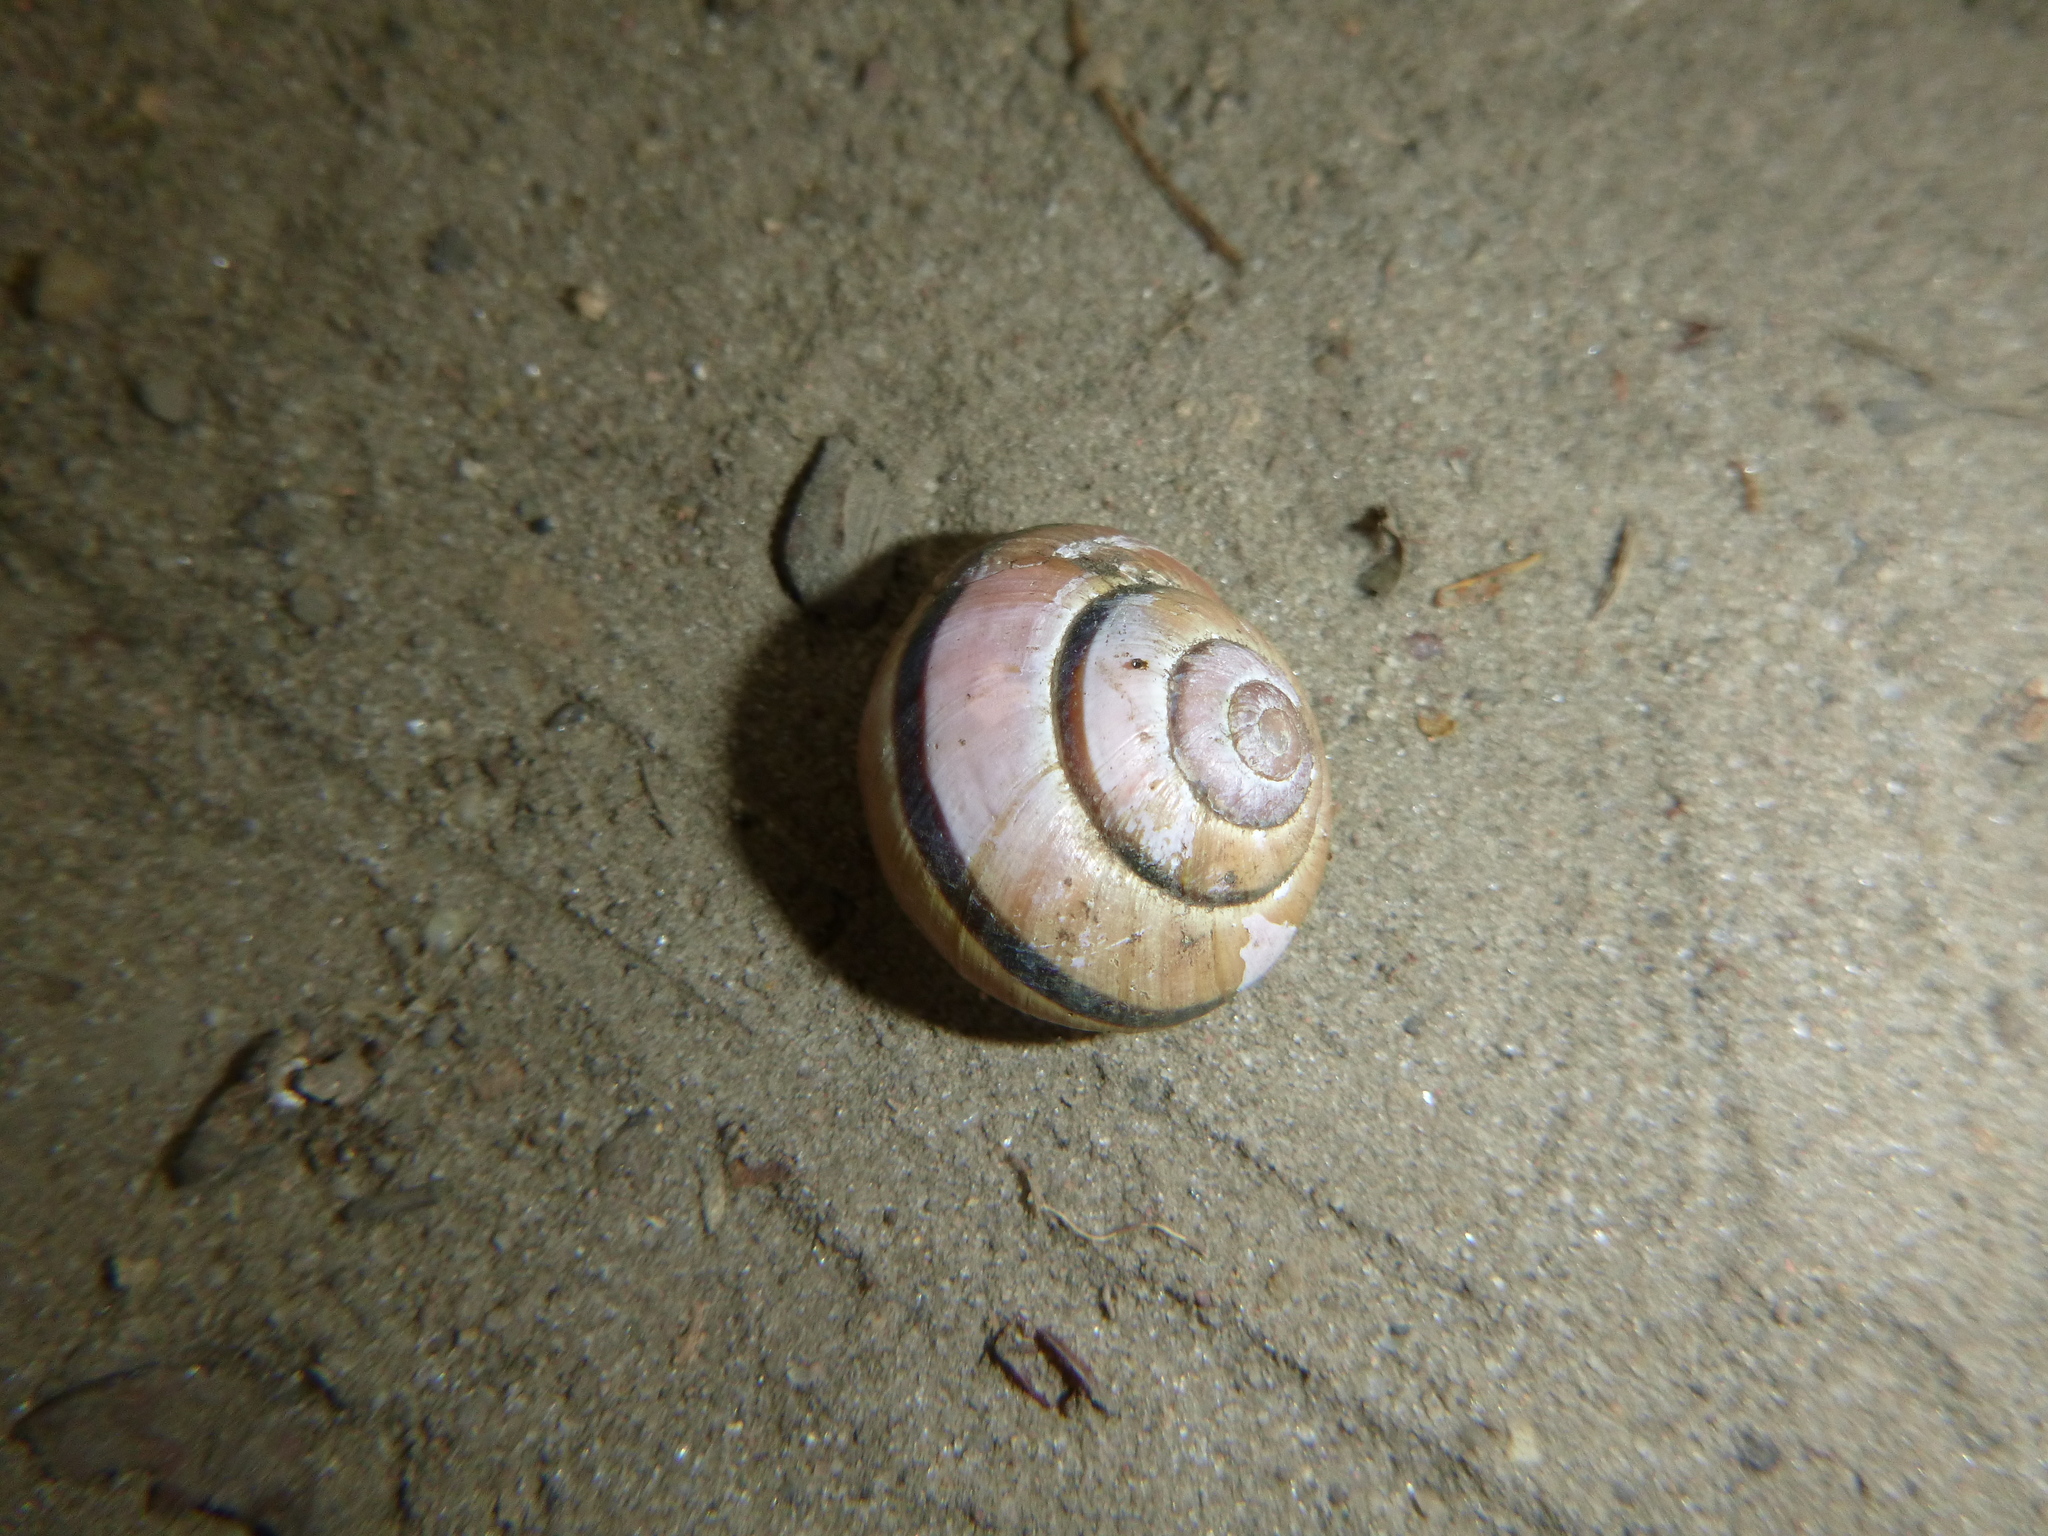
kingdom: Animalia
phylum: Mollusca
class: Gastropoda
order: Stylommatophora
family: Helicidae
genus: Cepaea
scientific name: Cepaea nemoralis
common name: Grovesnail
